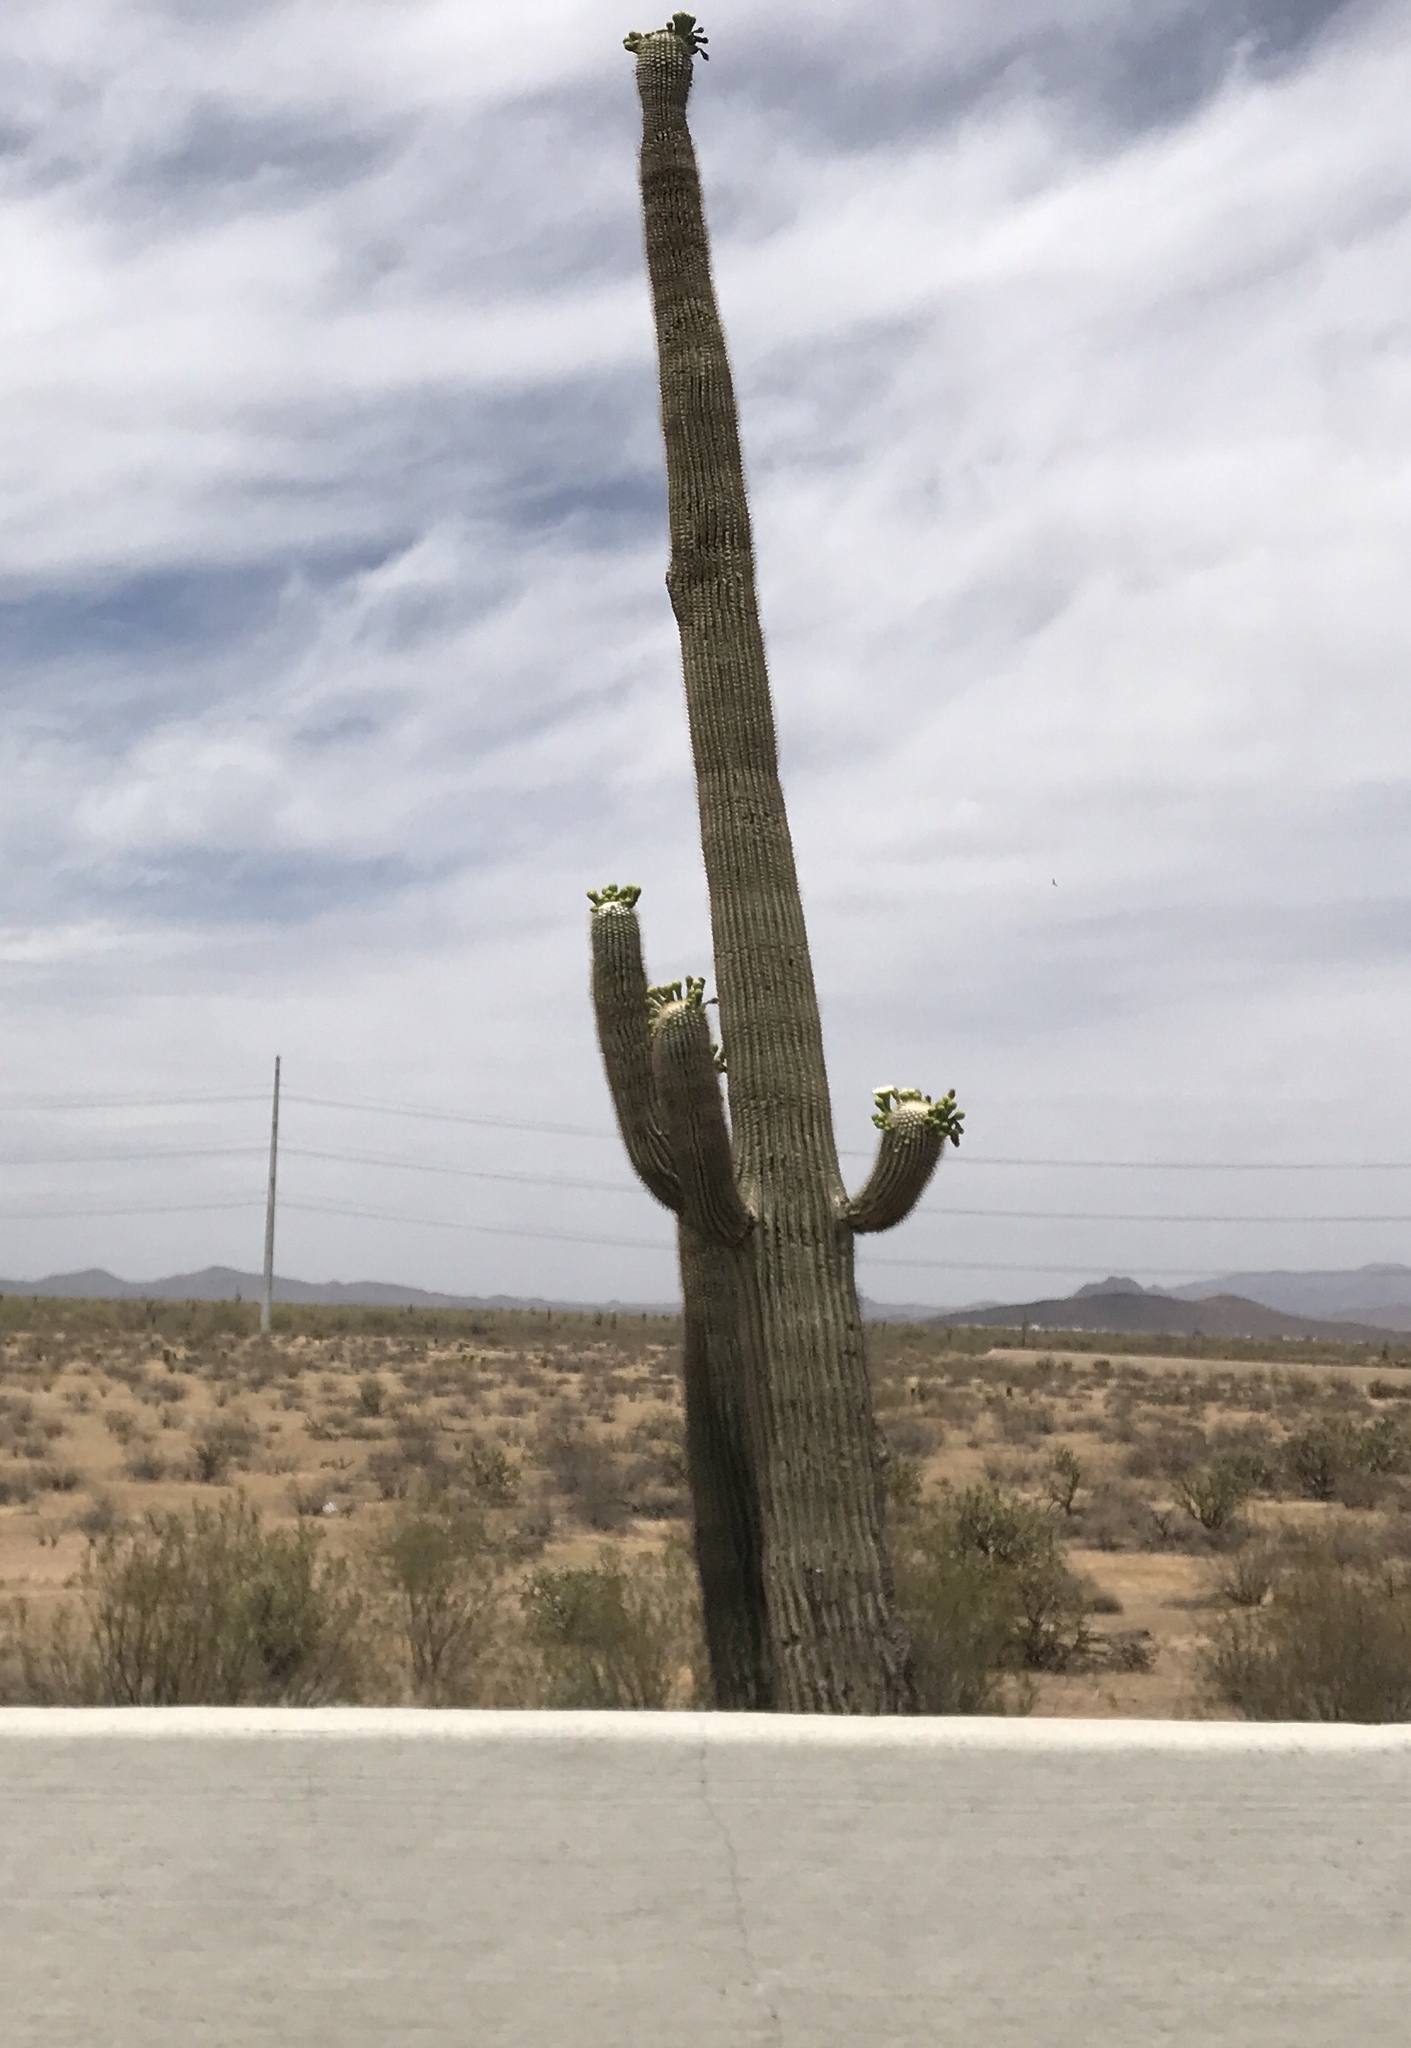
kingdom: Plantae
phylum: Tracheophyta
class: Magnoliopsida
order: Caryophyllales
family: Cactaceae
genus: Carnegiea
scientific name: Carnegiea gigantea
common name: Saguaro
